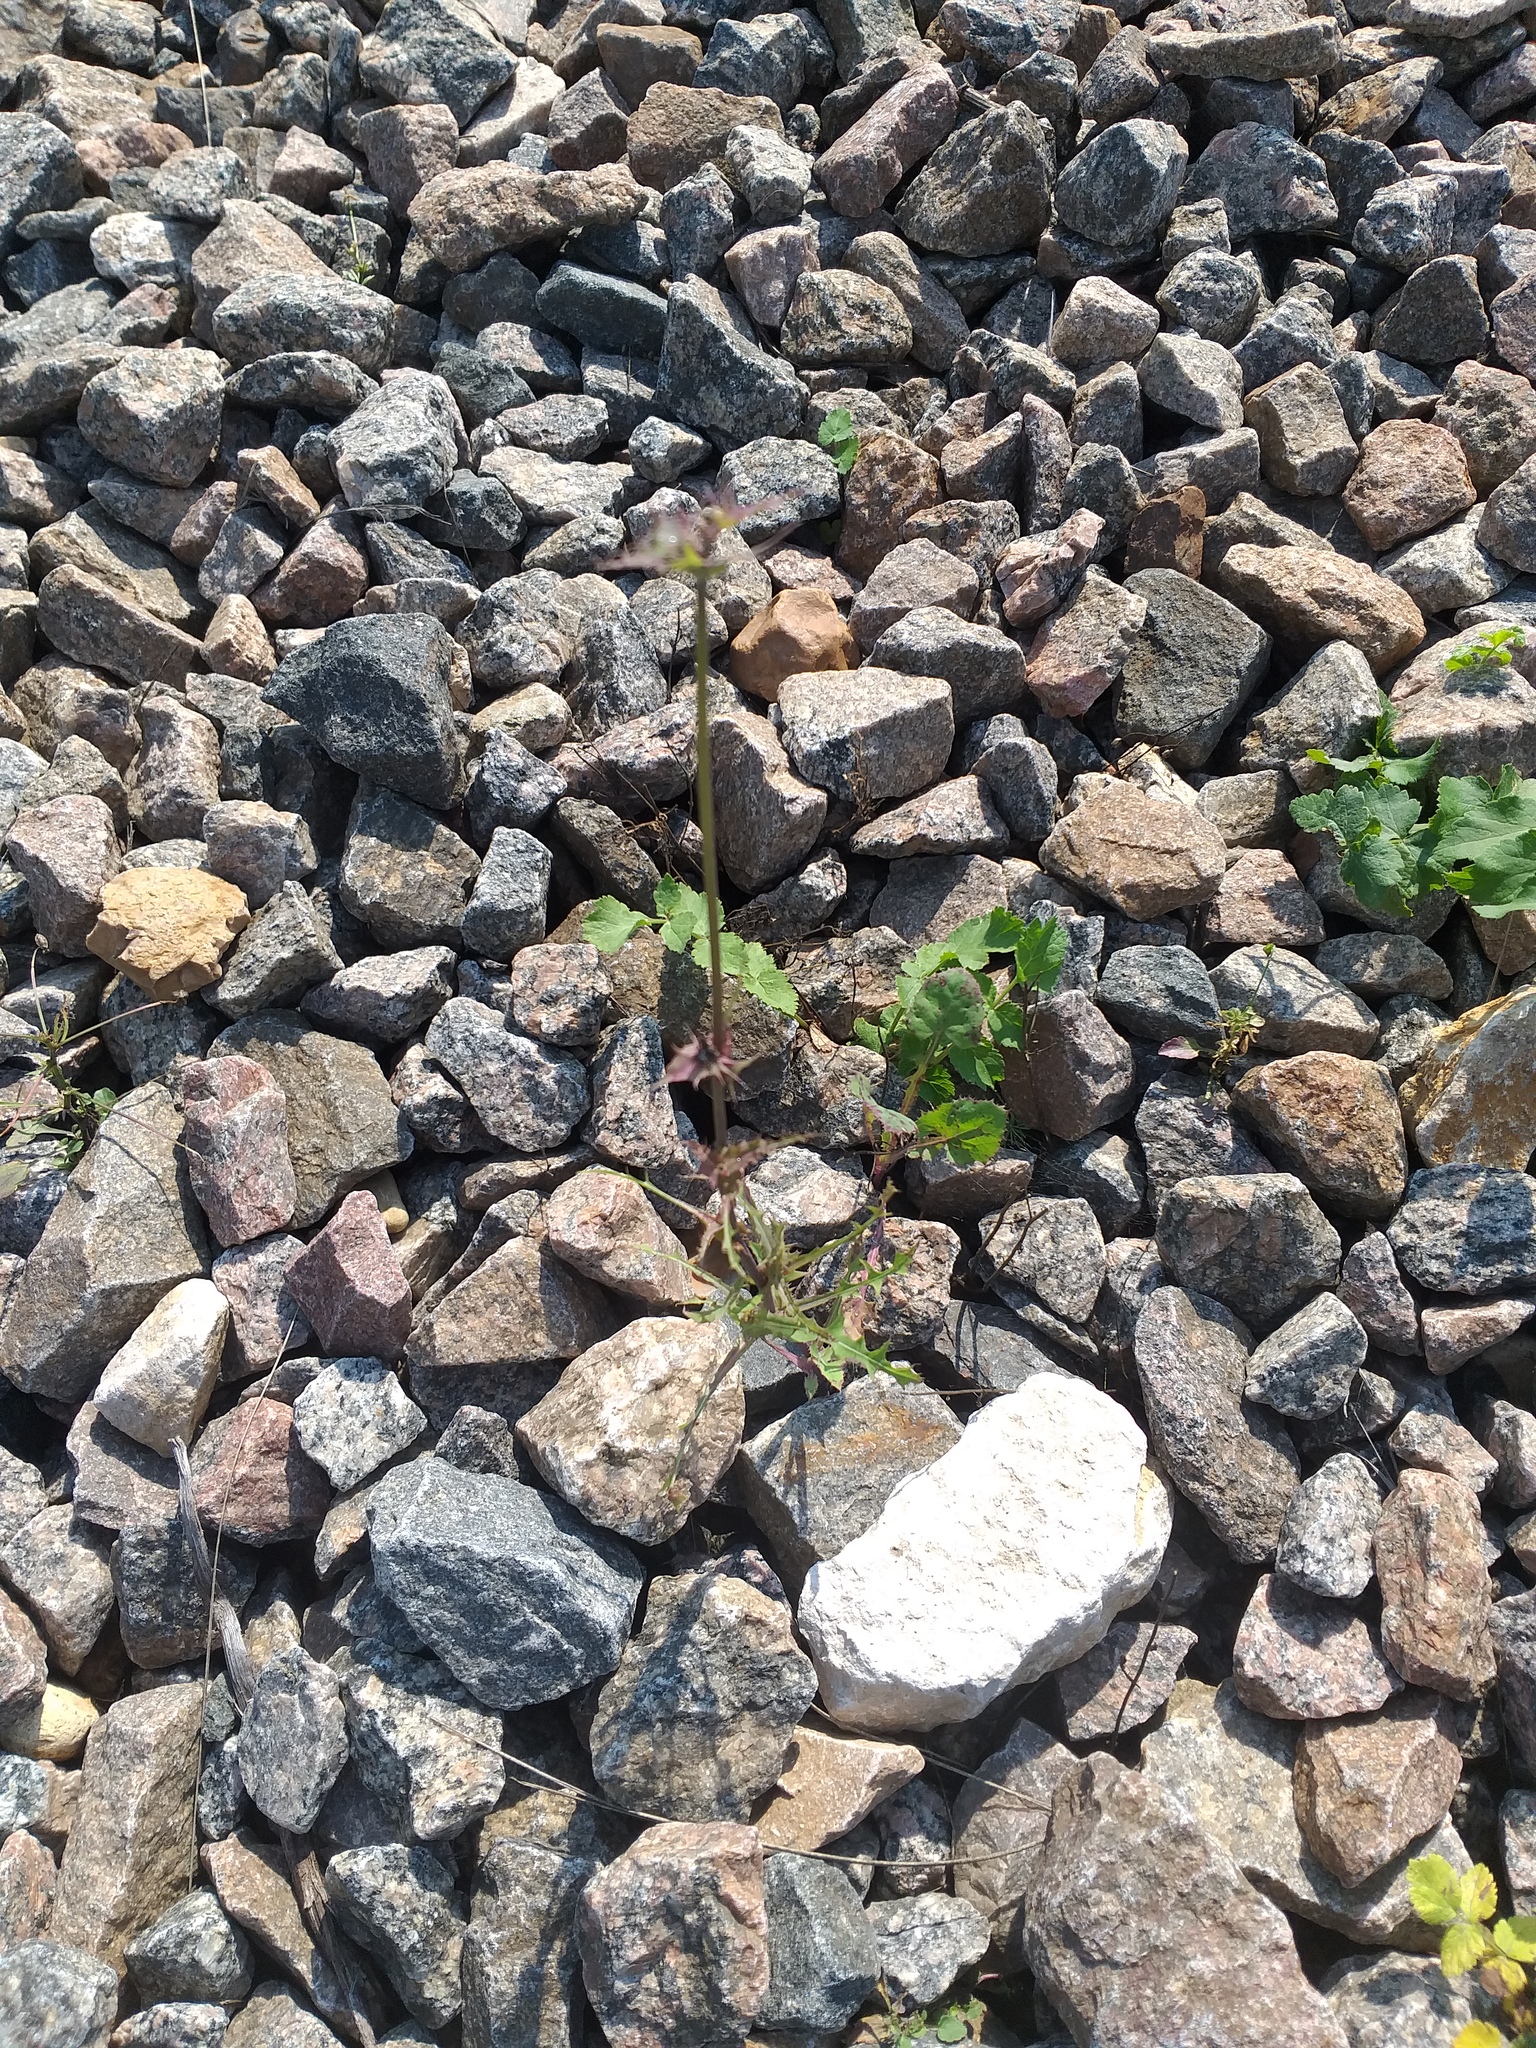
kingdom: Plantae
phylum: Tracheophyta
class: Magnoliopsida
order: Asterales
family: Asteraceae
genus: Sonchus
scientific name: Sonchus oleraceus
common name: Common sowthistle
